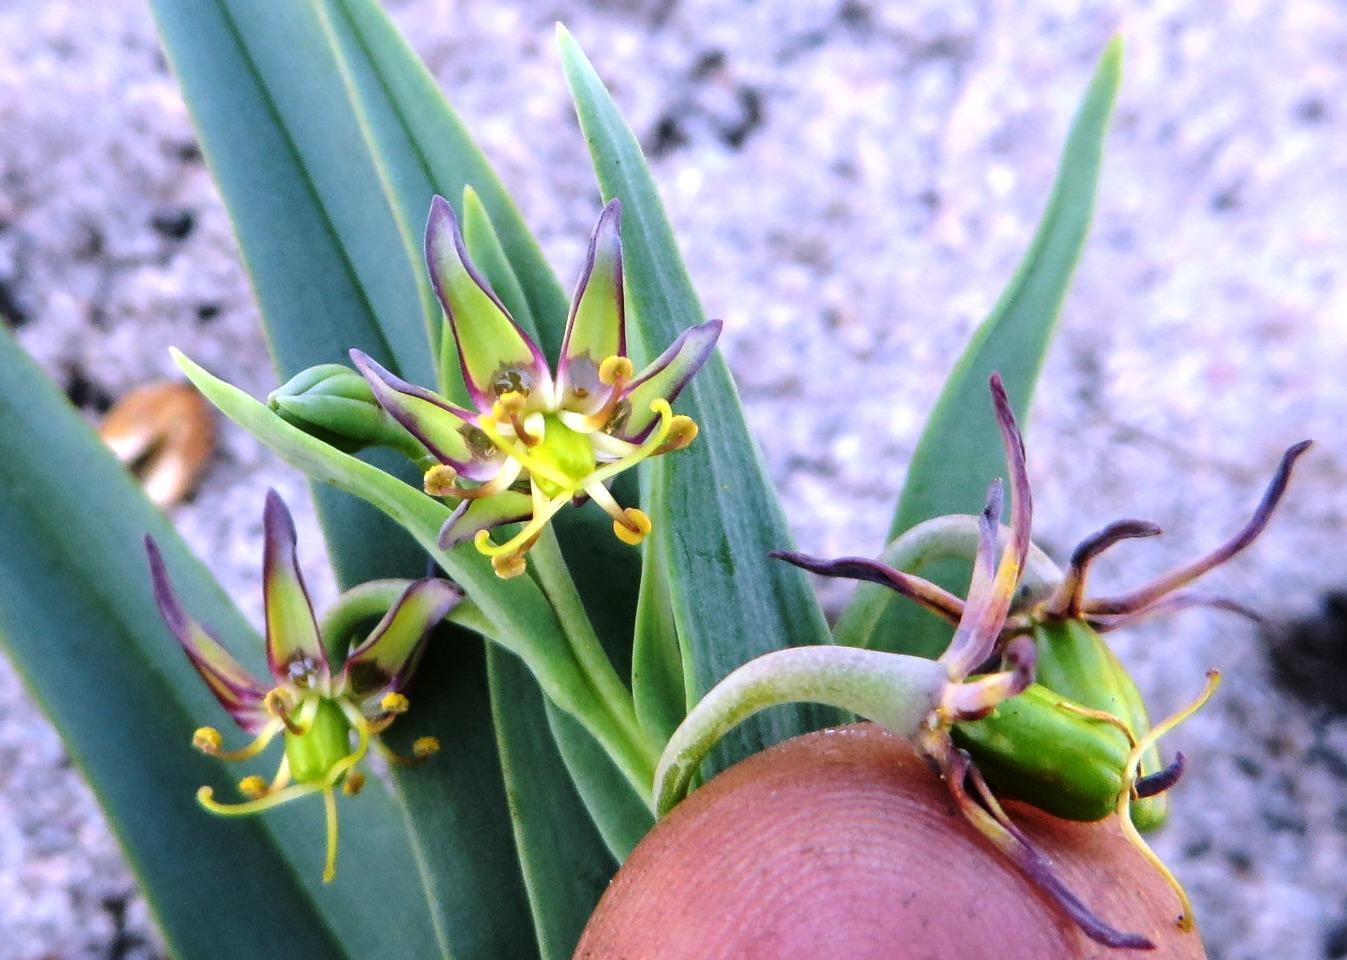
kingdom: Plantae
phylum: Tracheophyta
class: Liliopsida
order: Liliales
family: Colchicaceae
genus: Ornithoglossum
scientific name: Ornithoglossum viride
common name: Cape poison-onion
